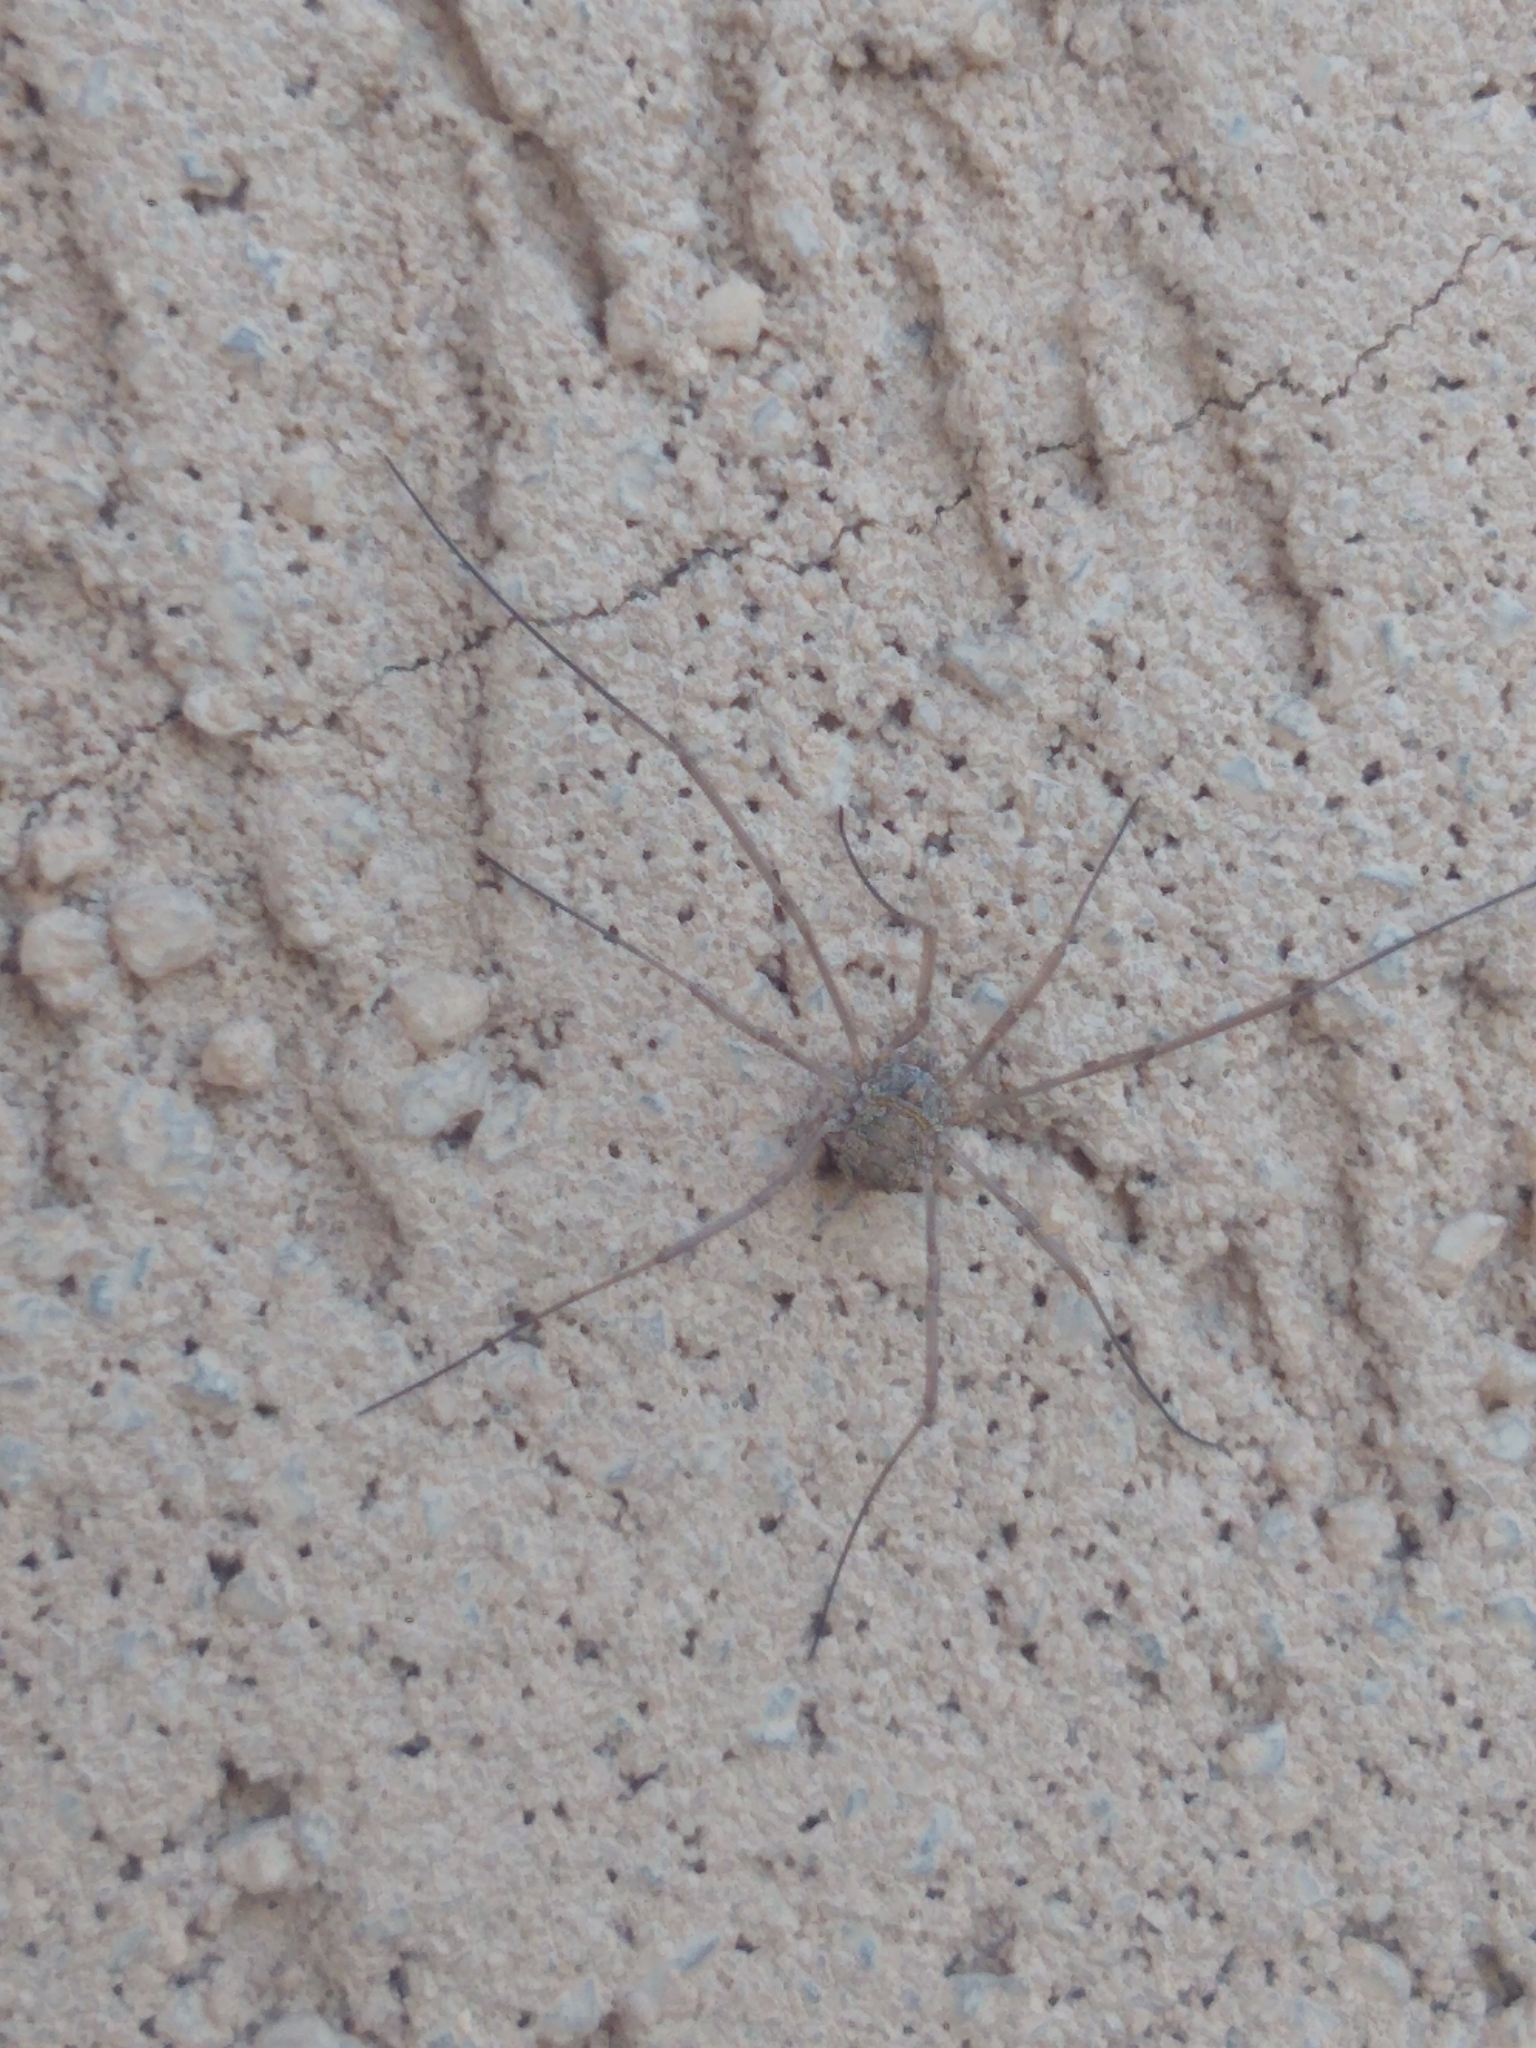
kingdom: Animalia
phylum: Arthropoda
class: Arachnida
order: Opiliones
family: Phalangiidae
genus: Phalangium
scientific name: Phalangium opilio
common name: Daddy longleg
